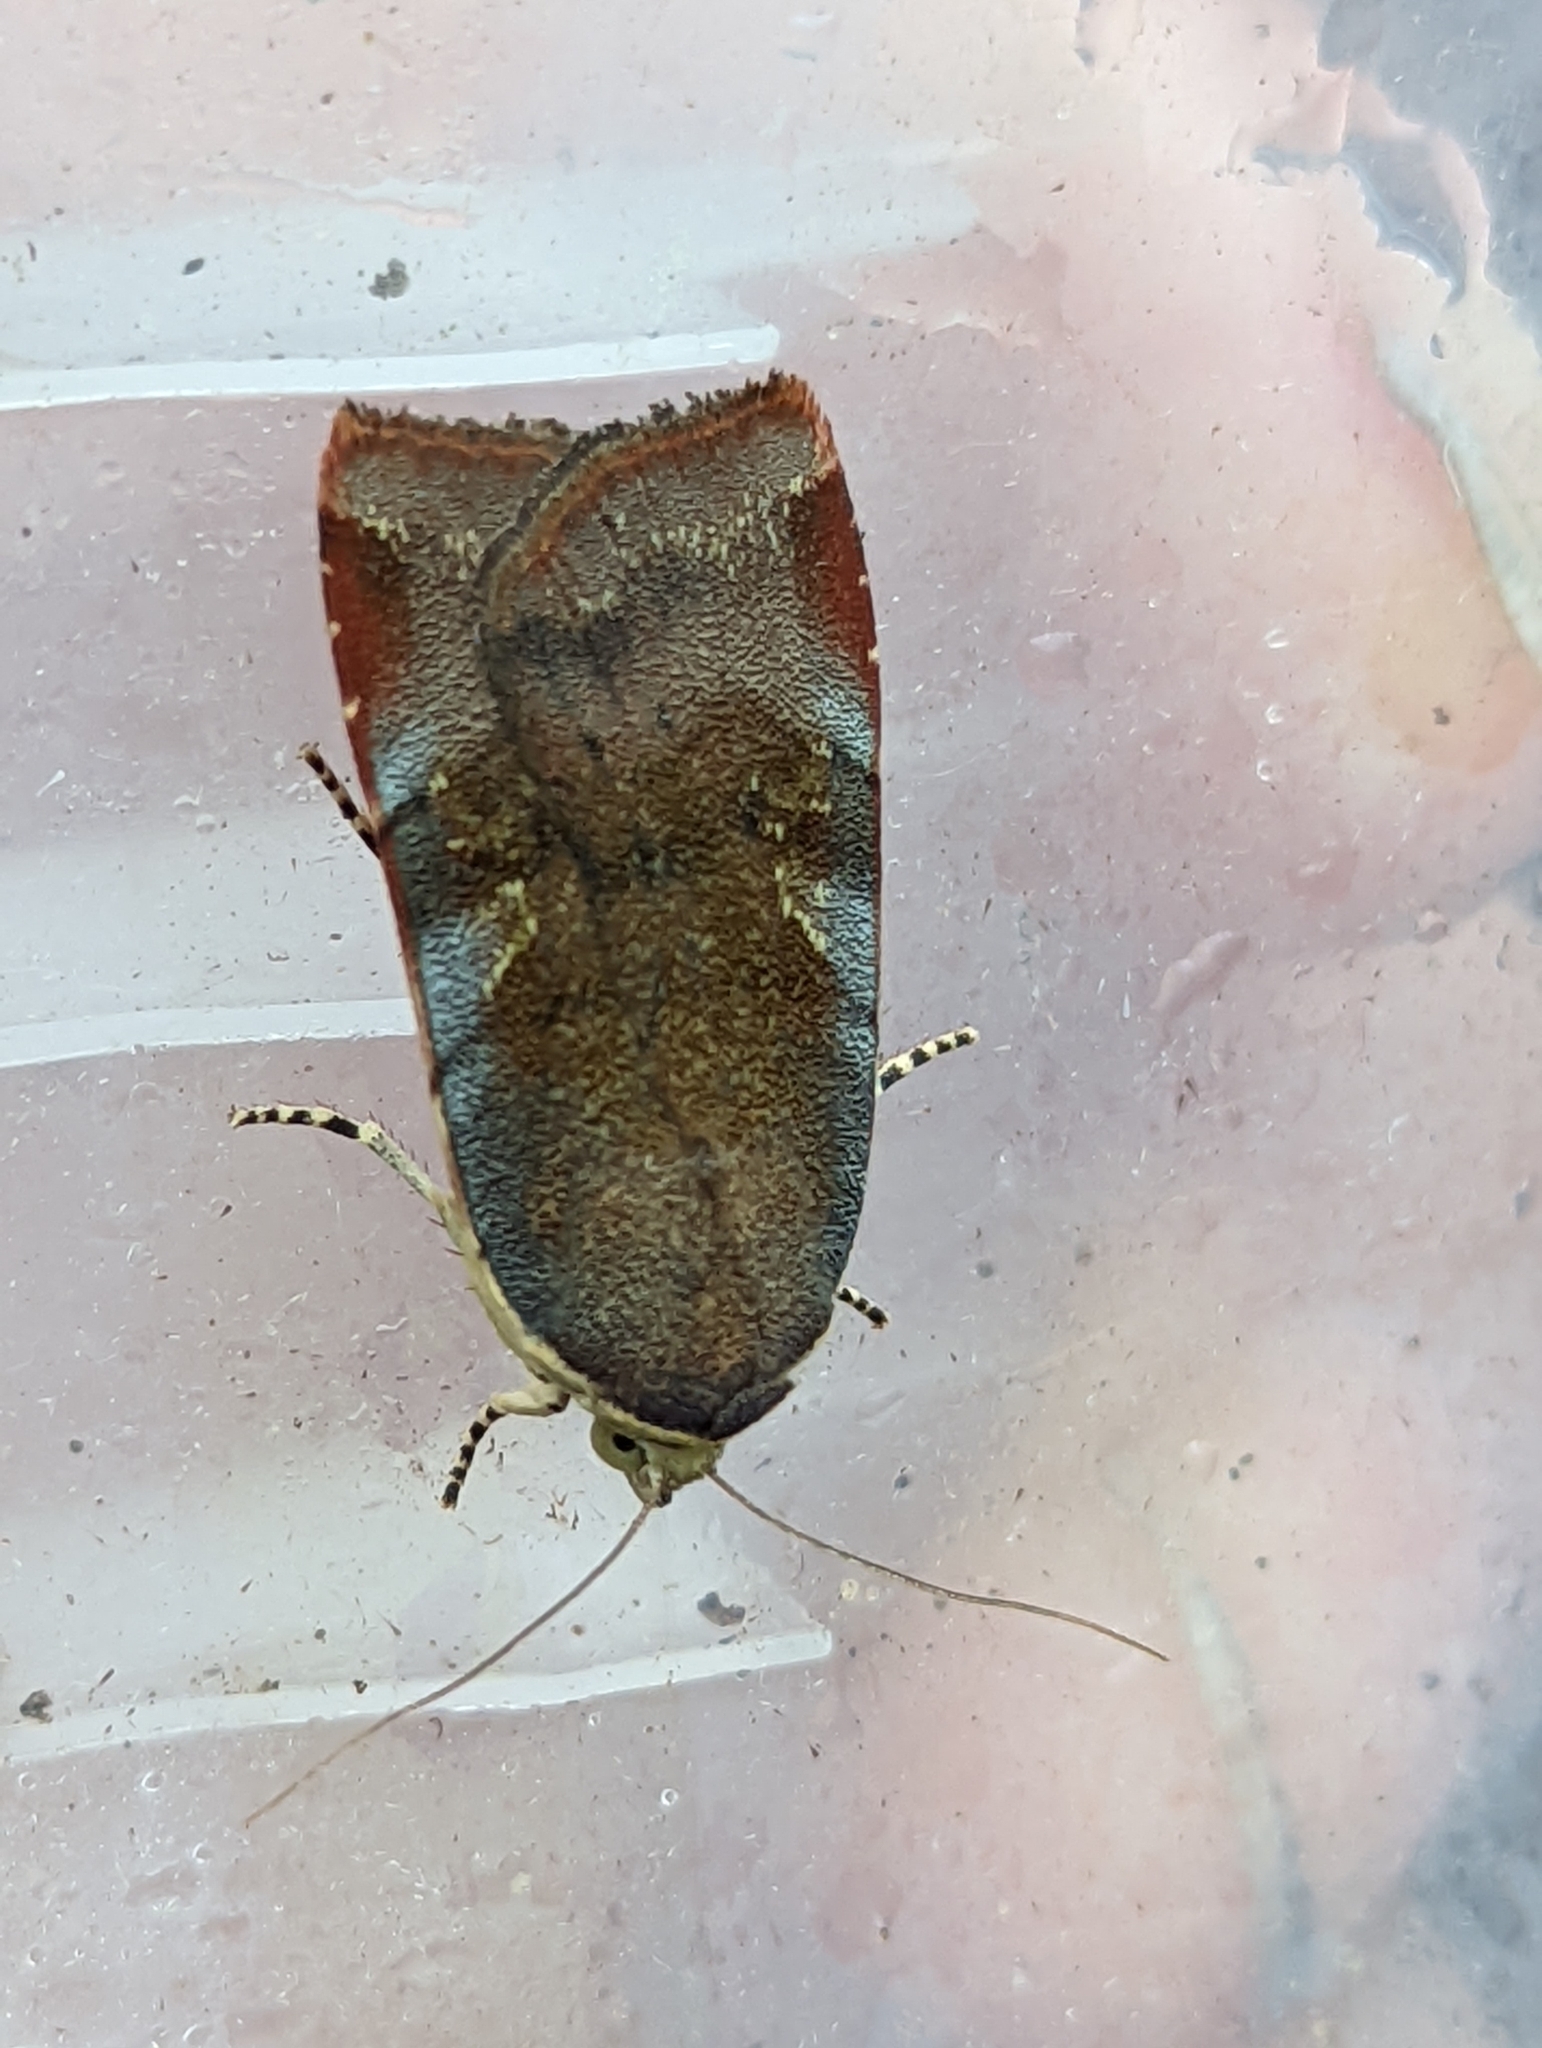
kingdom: Animalia
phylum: Arthropoda
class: Insecta
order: Lepidoptera
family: Noctuidae
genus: Noctua
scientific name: Noctua janthe
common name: Lesser broad-bordered yellow underwing
